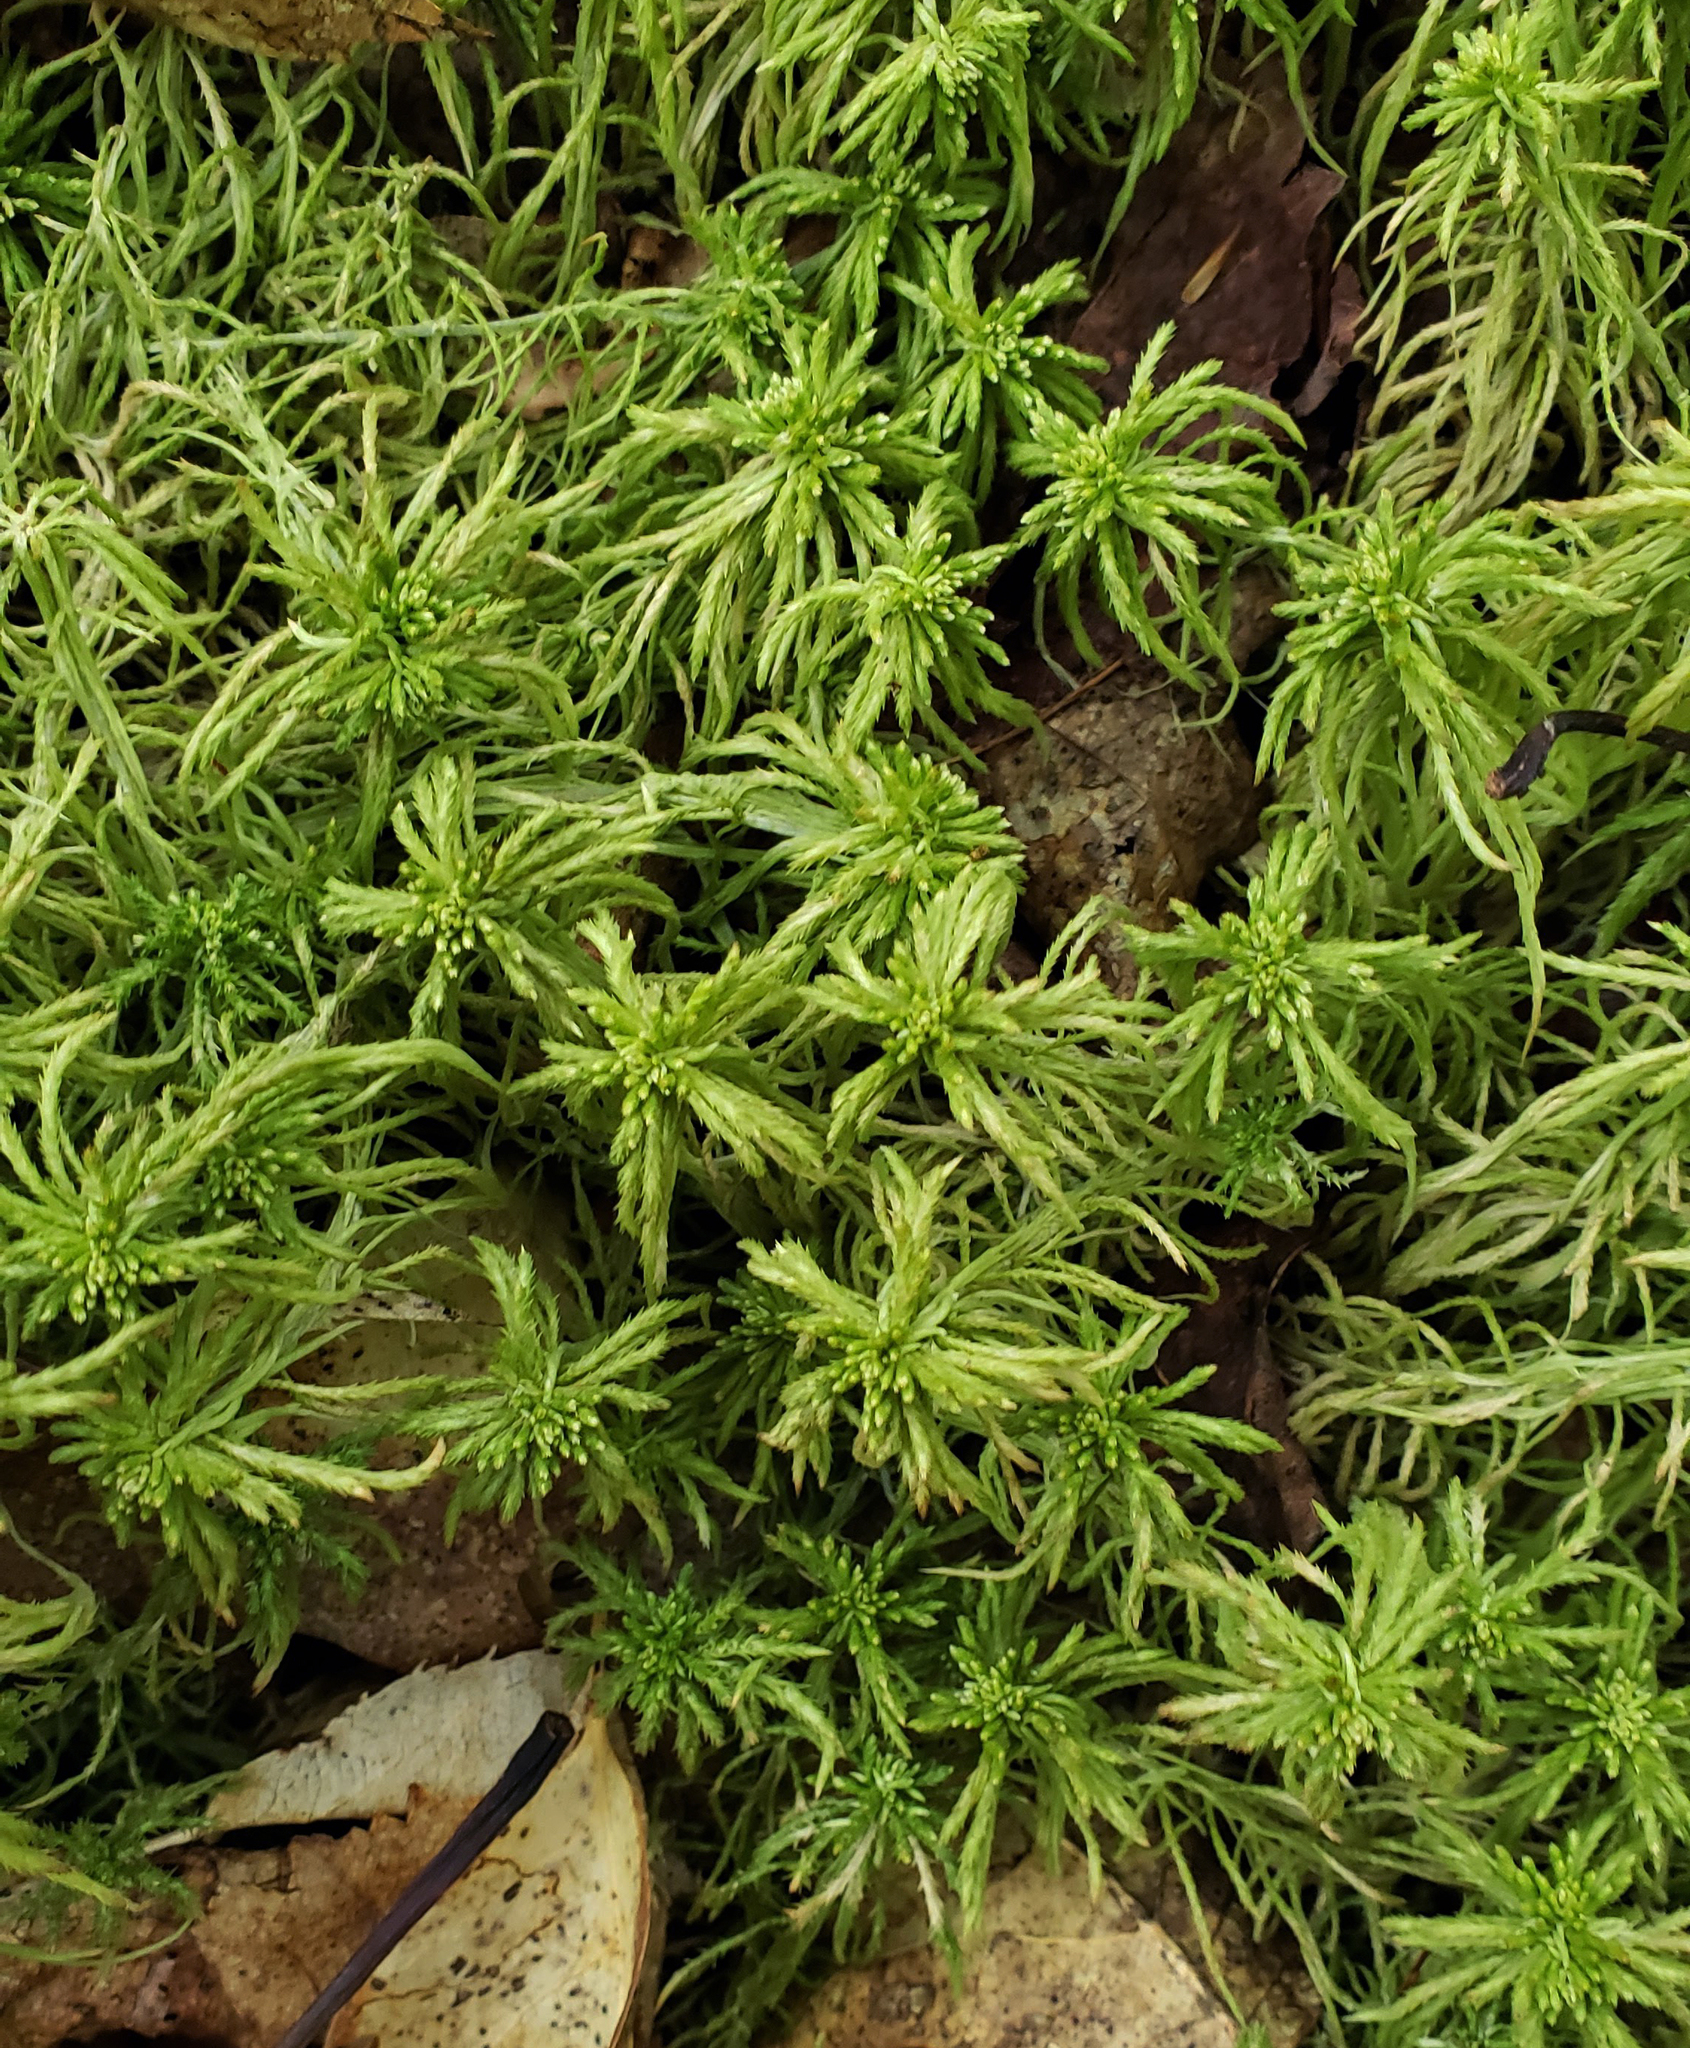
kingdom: Plantae
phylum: Bryophyta
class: Sphagnopsida
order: Sphagnales
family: Sphagnaceae
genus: Sphagnum
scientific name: Sphagnum girgensohnii
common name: Girgensohn's peat moss
